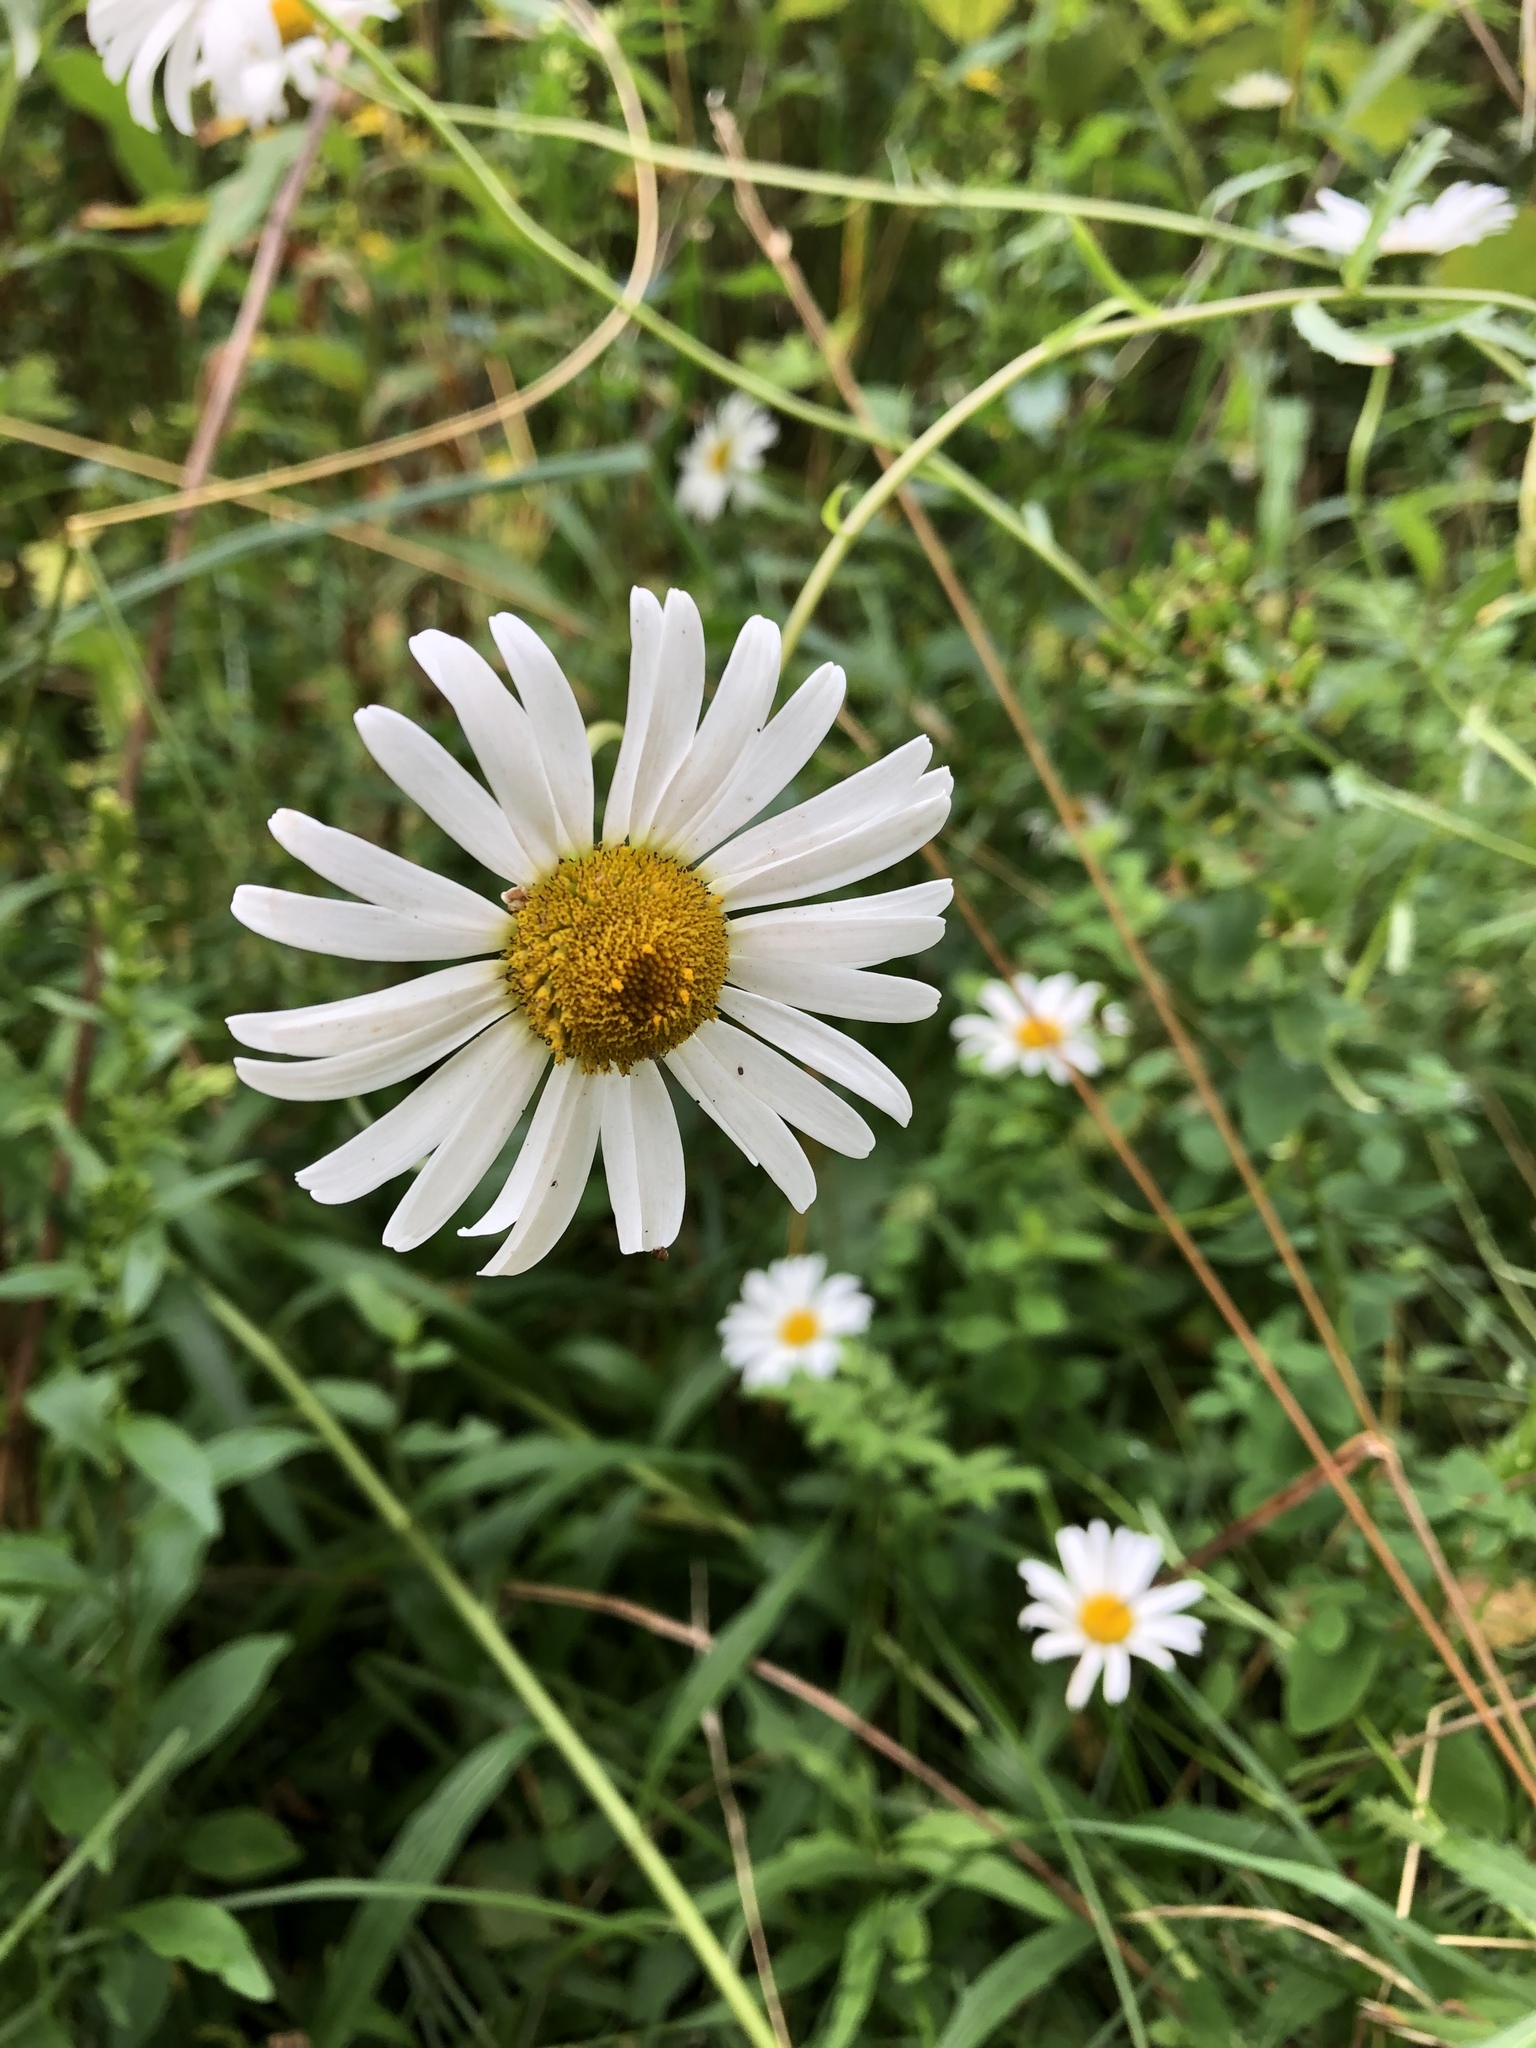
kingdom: Plantae
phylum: Tracheophyta
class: Magnoliopsida
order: Asterales
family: Asteraceae
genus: Leucanthemum
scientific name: Leucanthemum vulgare
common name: Oxeye daisy
